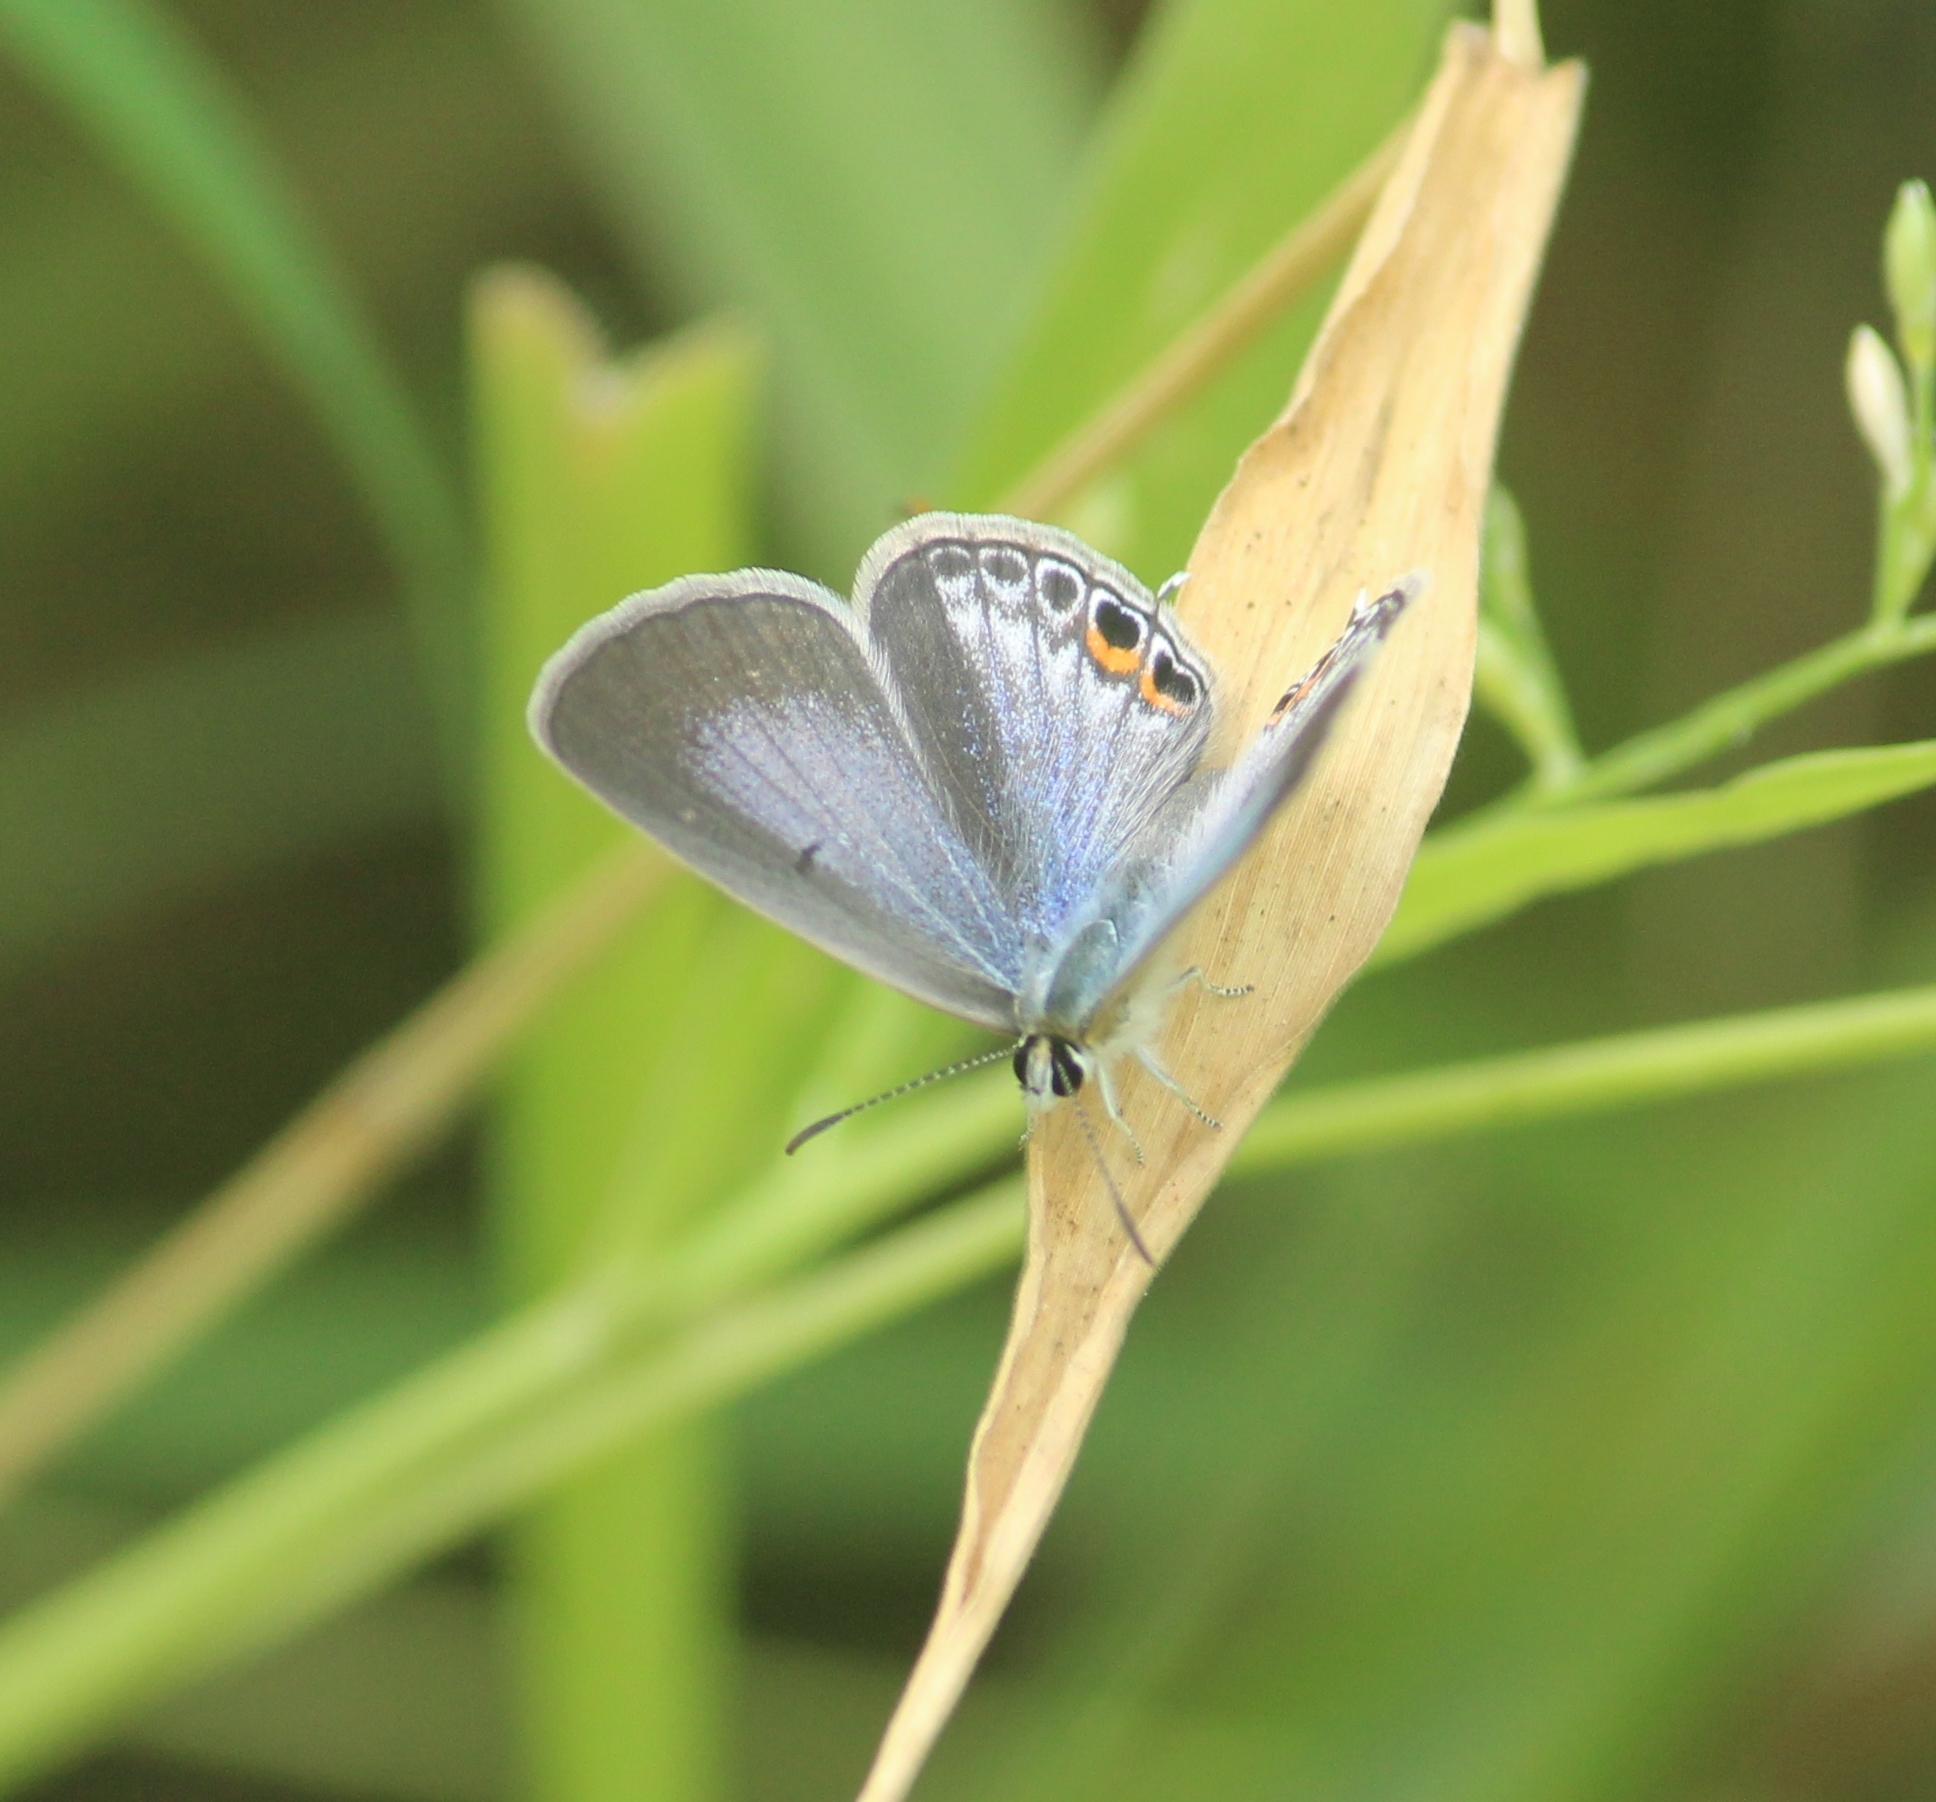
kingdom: Animalia
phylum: Arthropoda
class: Insecta
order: Lepidoptera
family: Lycaenidae
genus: Euchrysops
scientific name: Euchrysops cnejus
